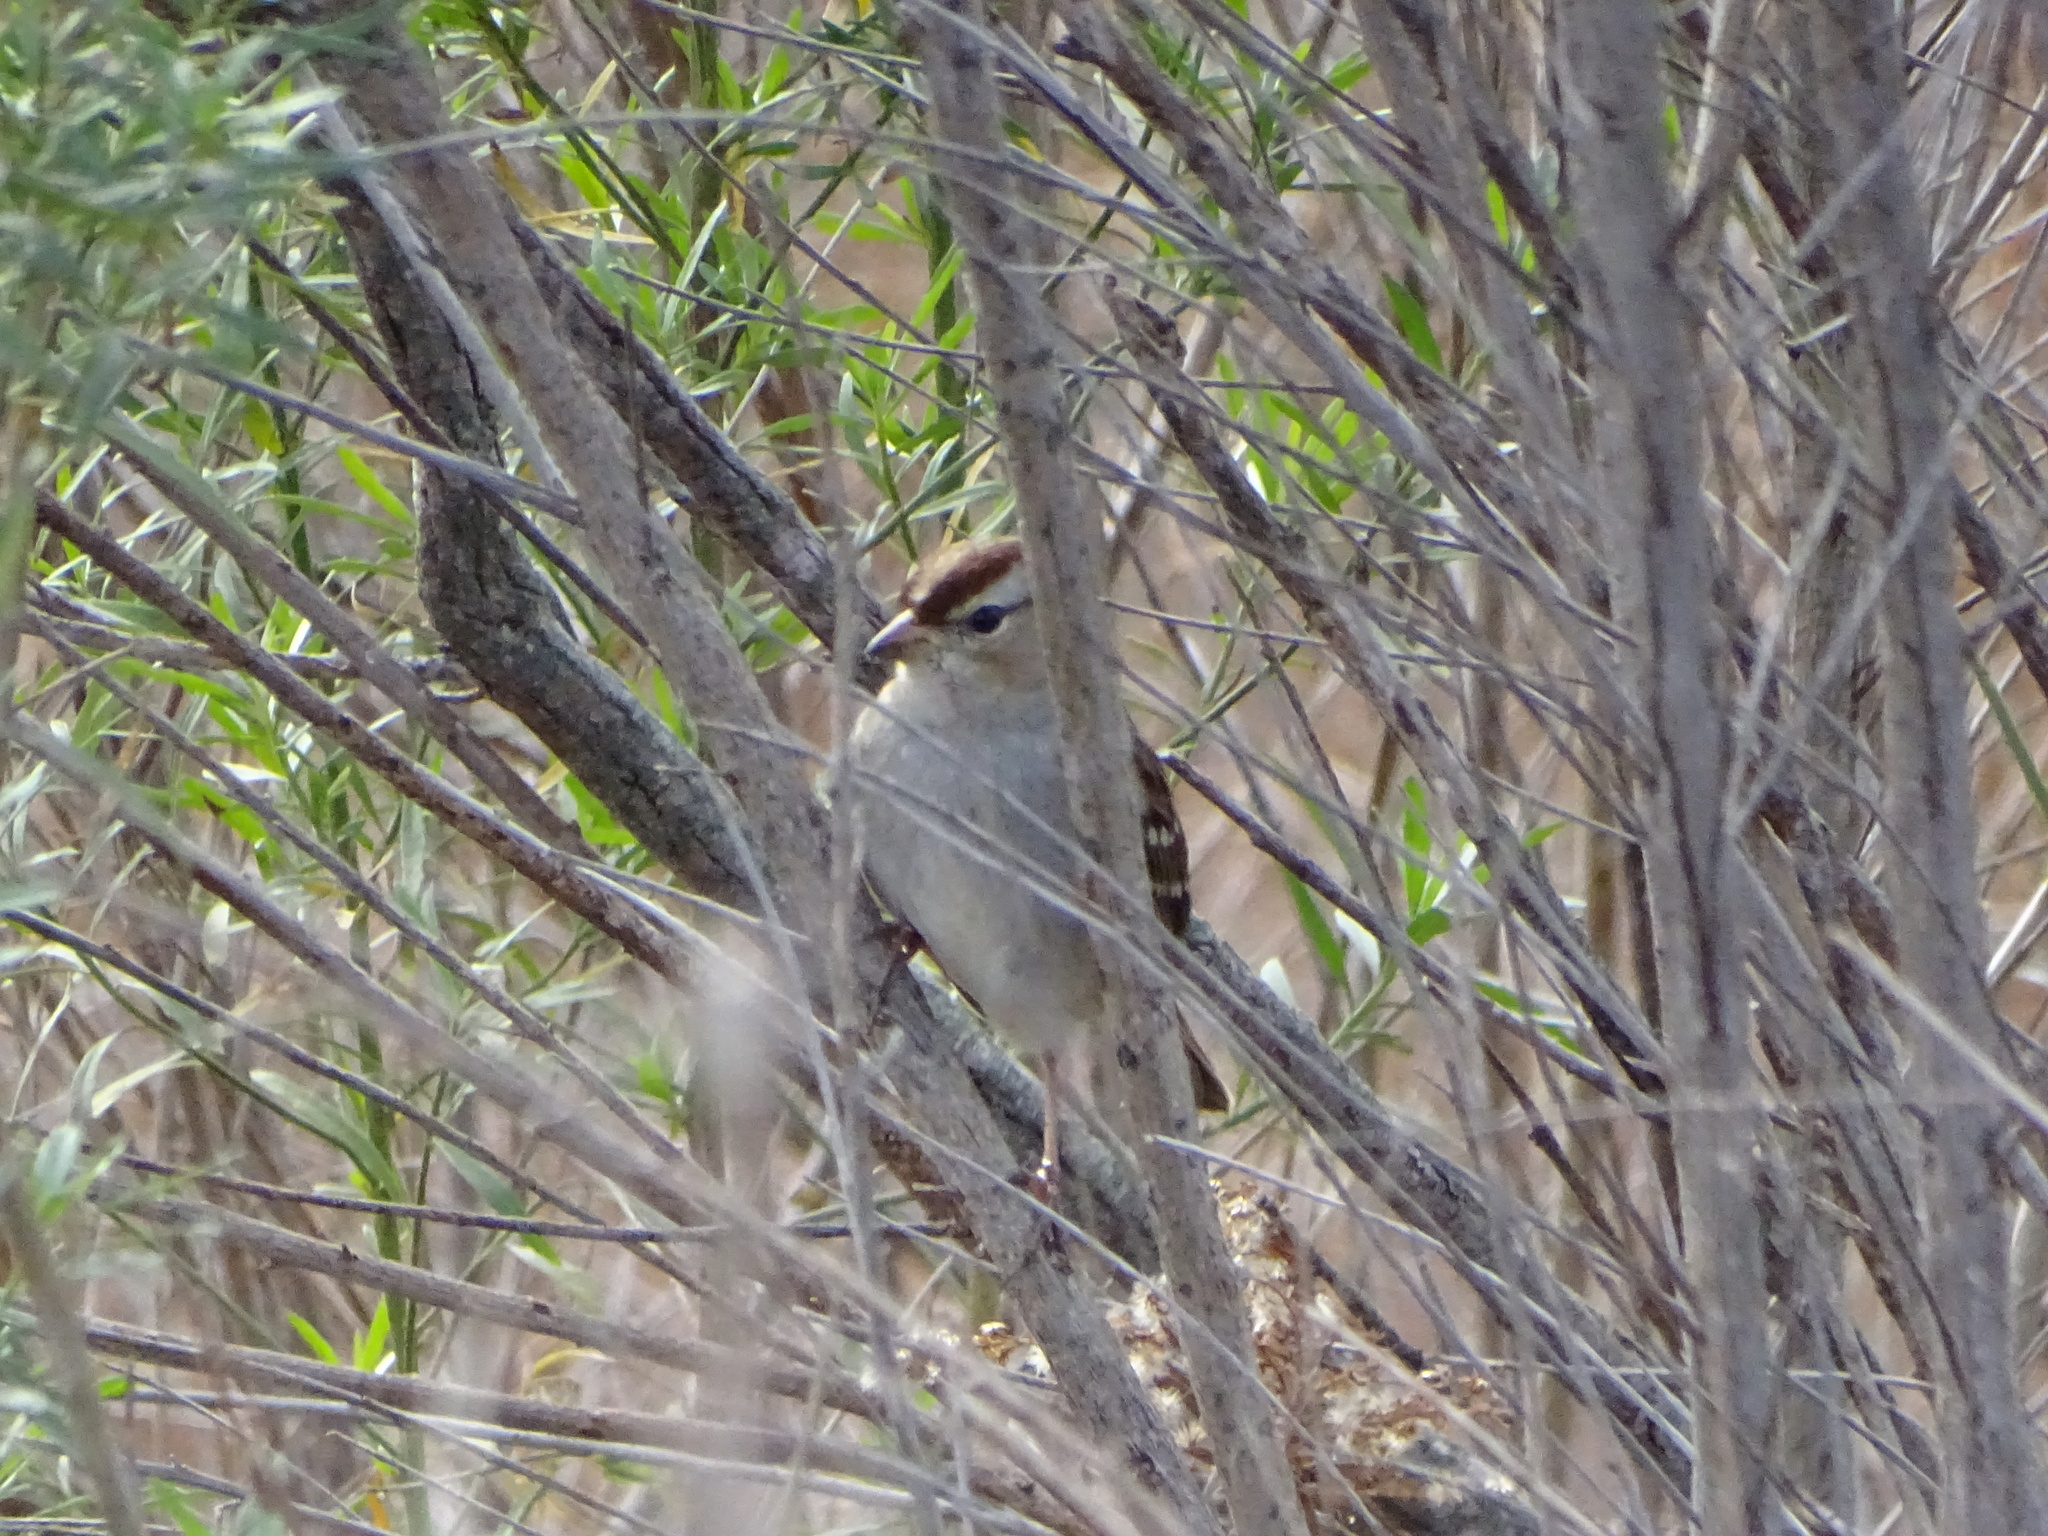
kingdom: Animalia
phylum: Chordata
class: Aves
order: Passeriformes
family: Passerellidae
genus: Zonotrichia
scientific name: Zonotrichia leucophrys
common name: White-crowned sparrow
